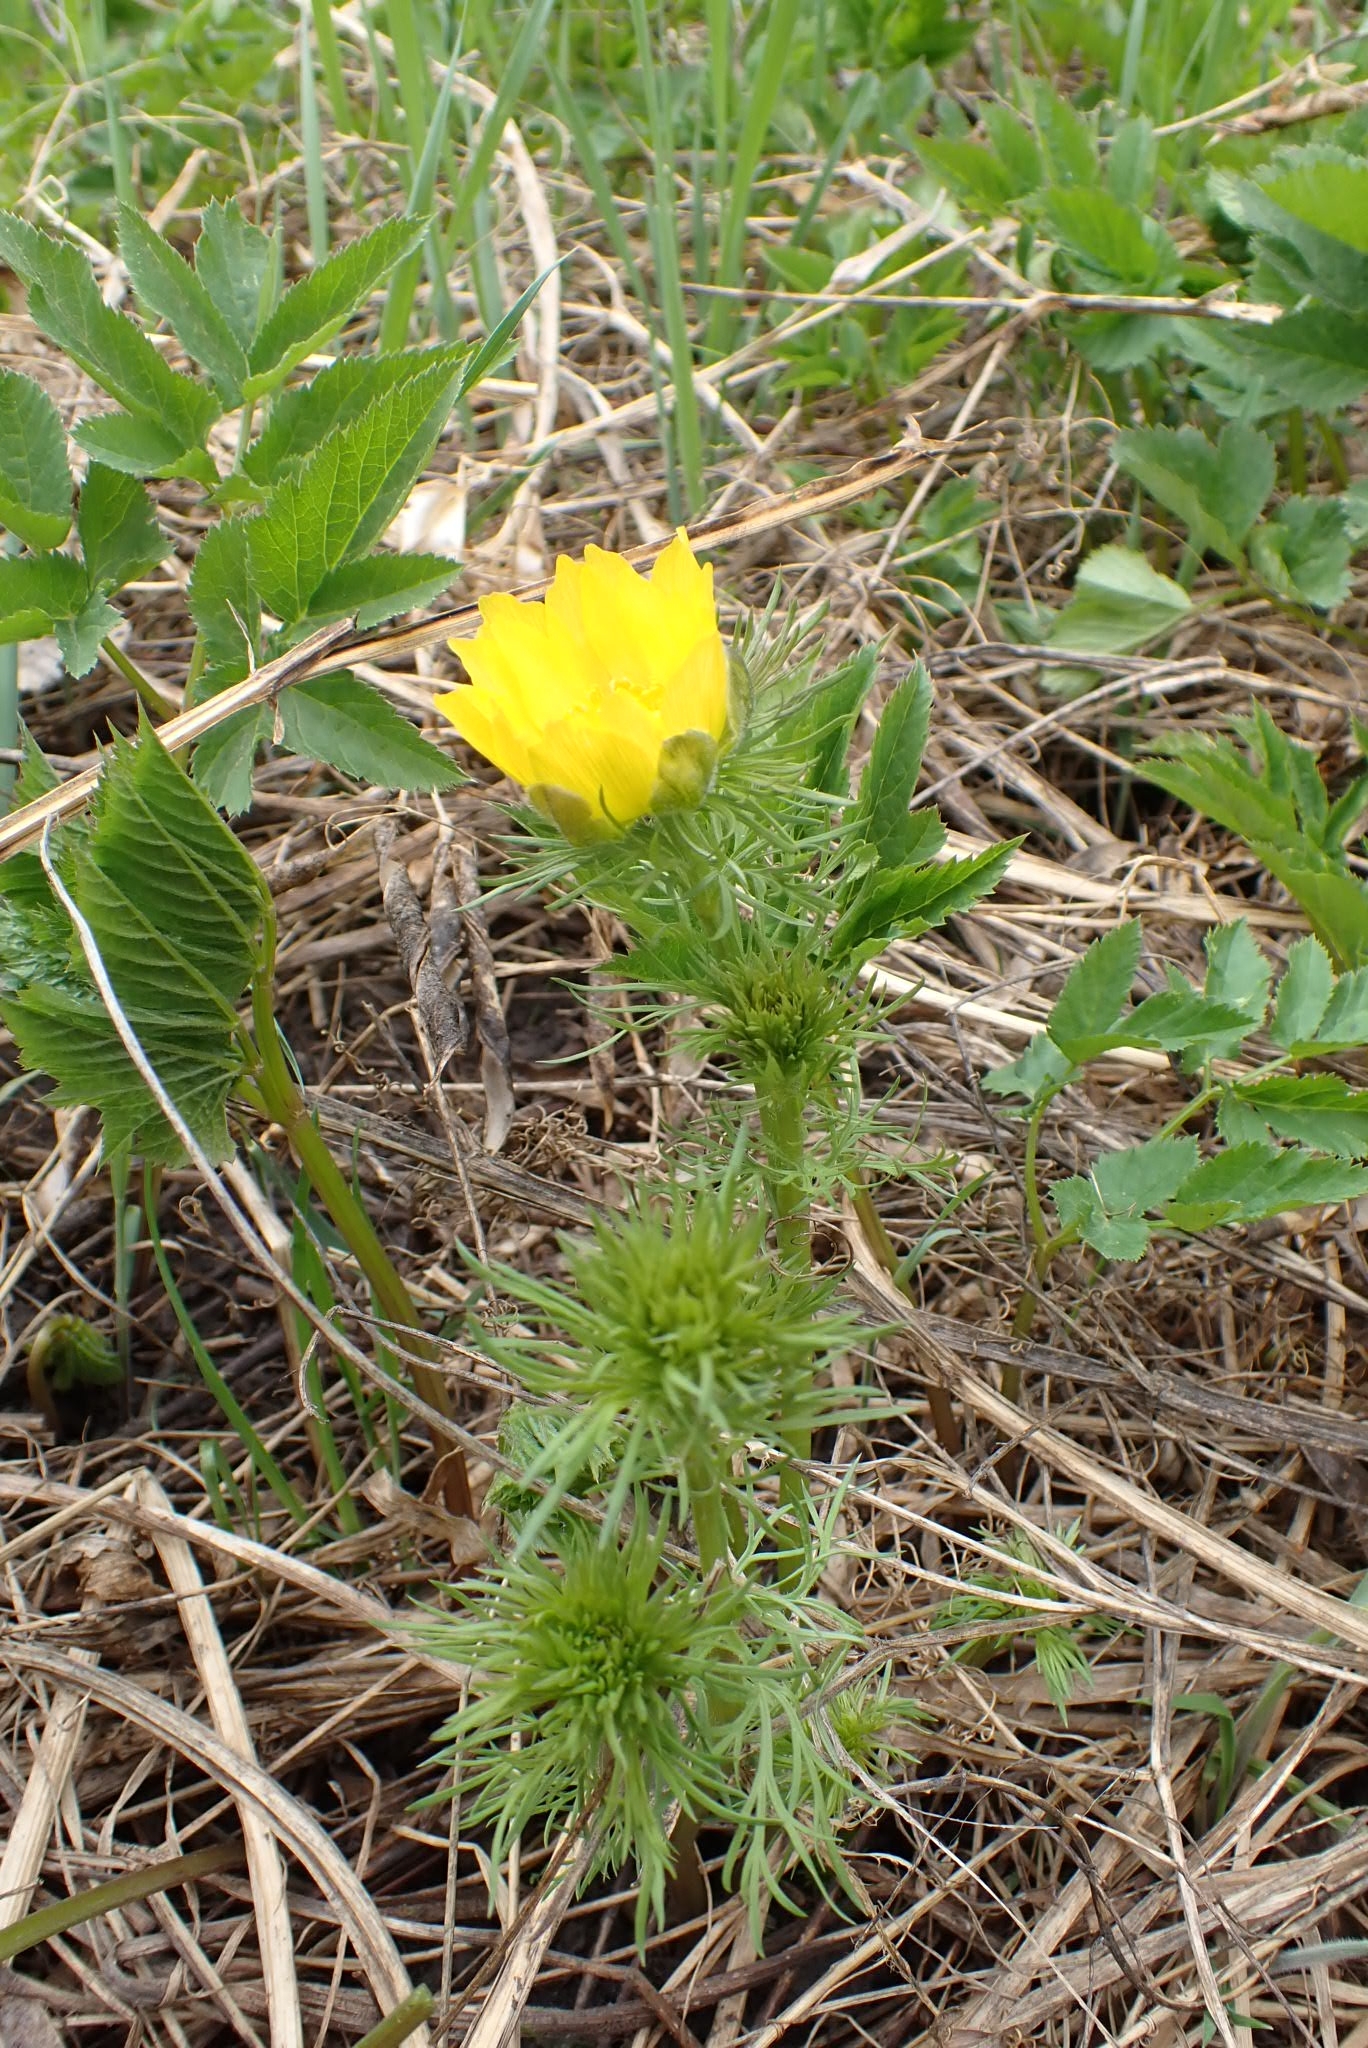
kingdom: Plantae
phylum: Tracheophyta
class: Magnoliopsida
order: Ranunculales
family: Ranunculaceae
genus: Adonis
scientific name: Adonis vernalis
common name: Yellow pheasants-eye
